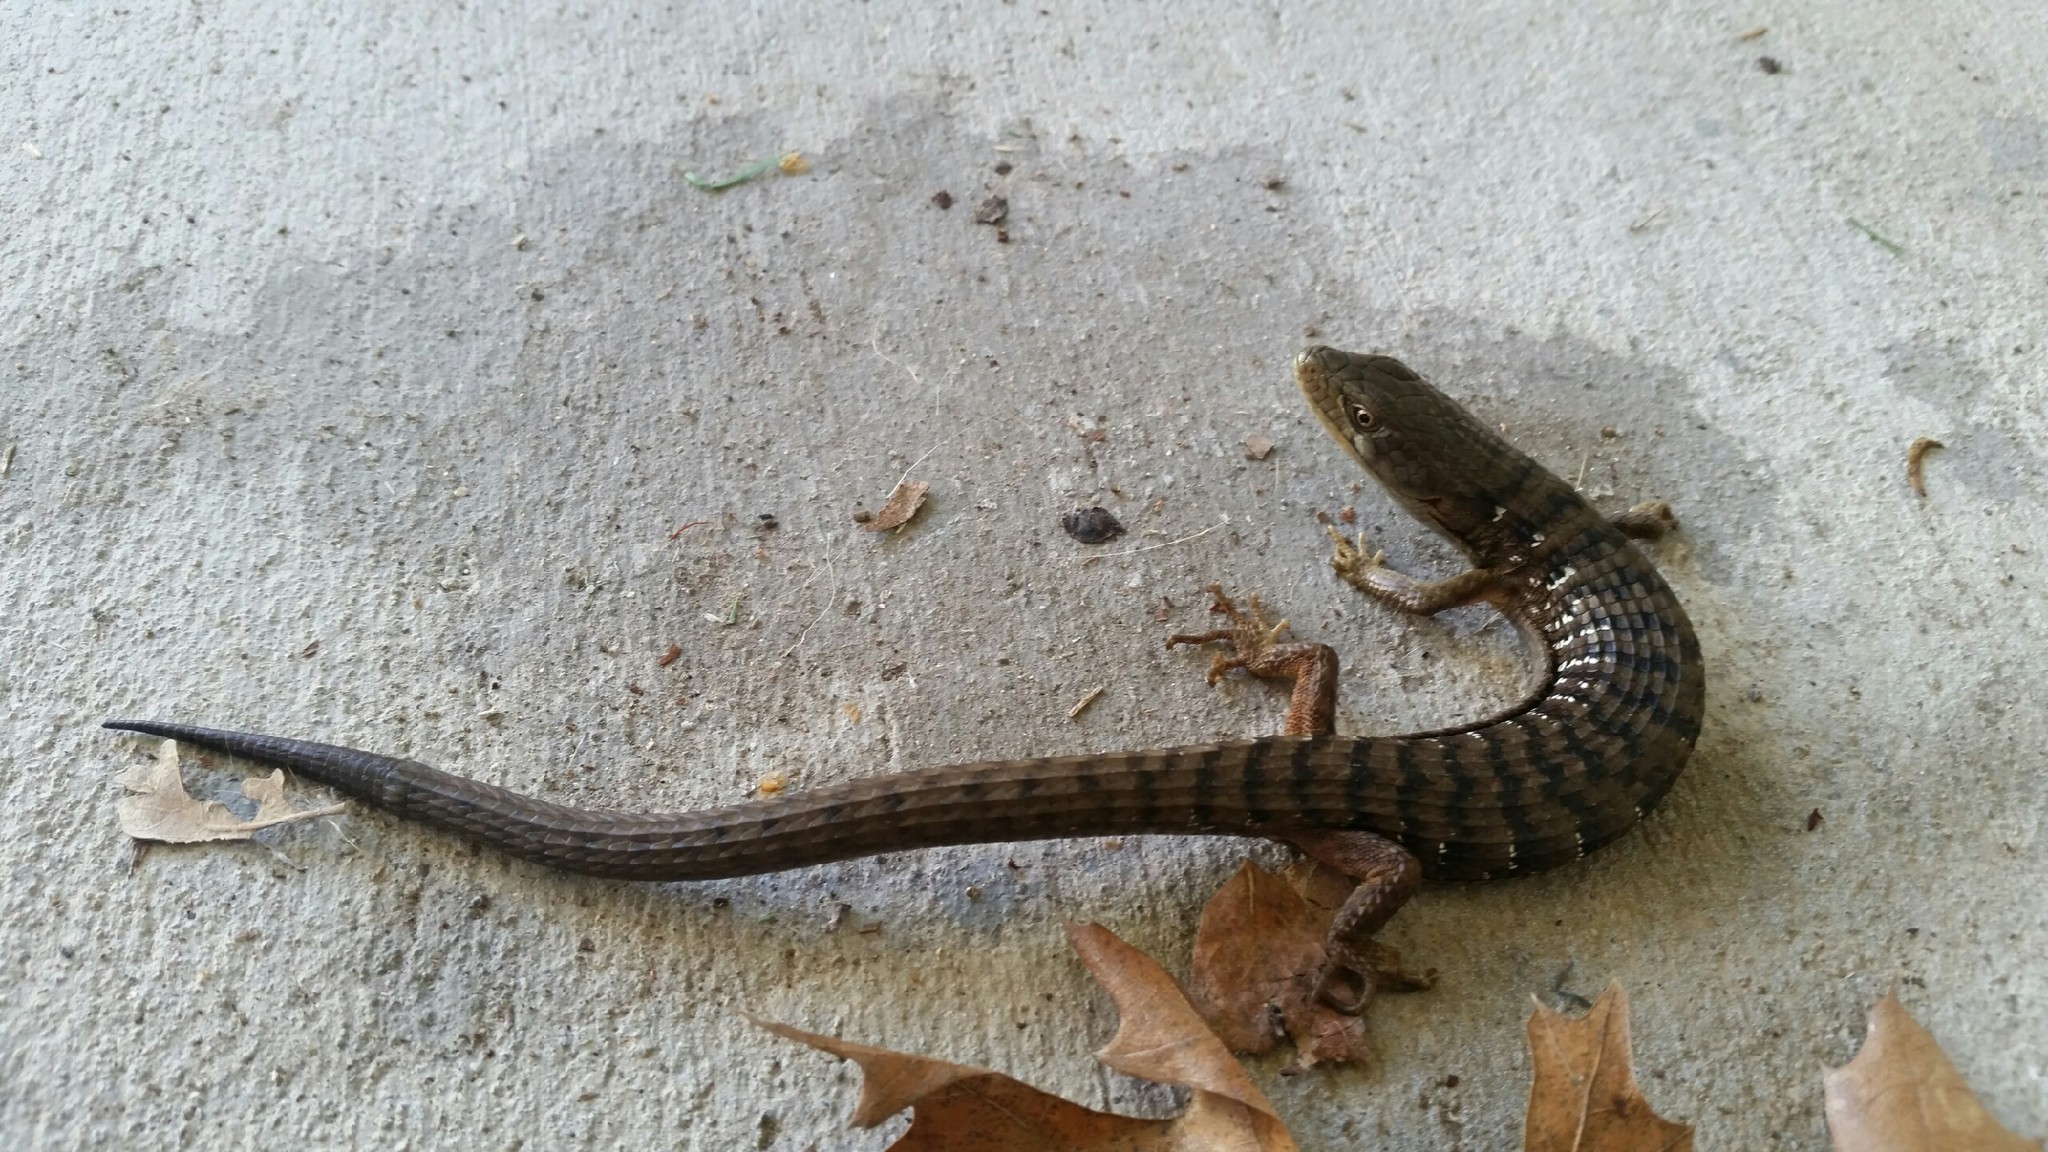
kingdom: Animalia
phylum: Chordata
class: Squamata
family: Anguidae
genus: Elgaria
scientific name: Elgaria multicarinata
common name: Southern alligator lizard
